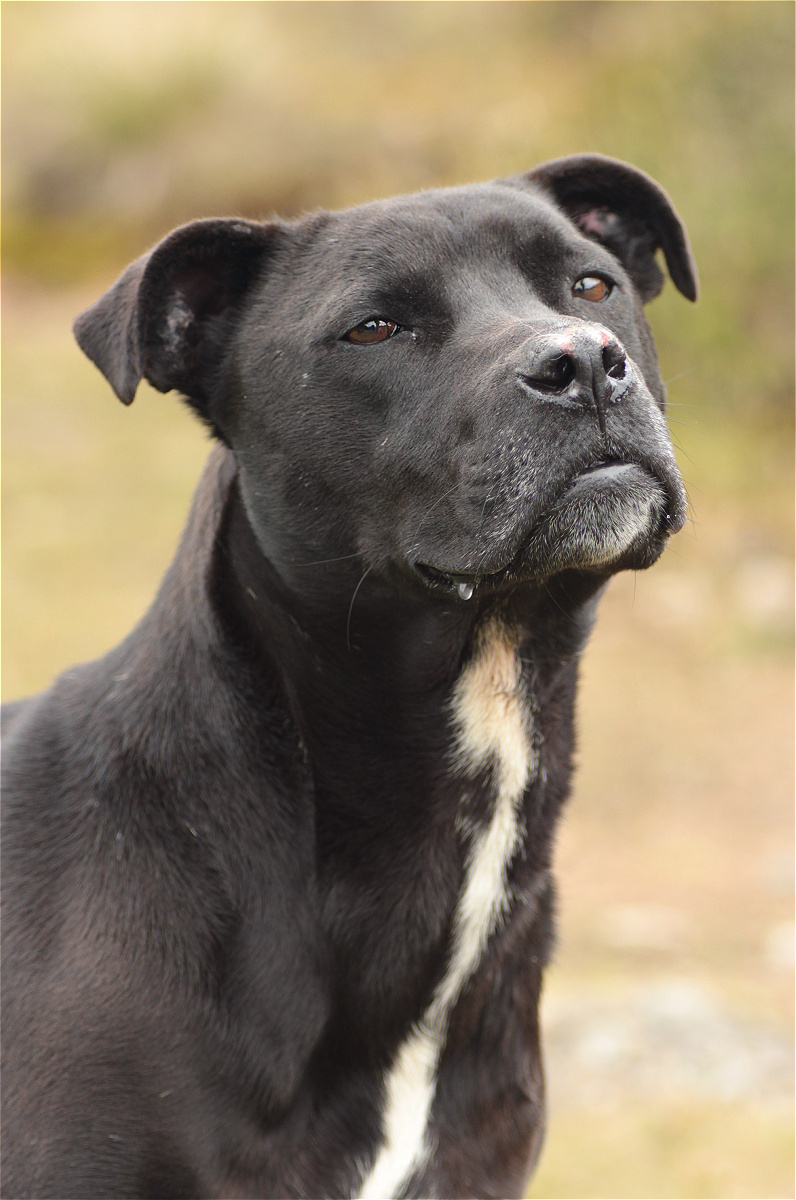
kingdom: Animalia
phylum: Chordata
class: Mammalia
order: Carnivora
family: Canidae
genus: Canis
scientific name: Canis lupus
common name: Gray wolf
